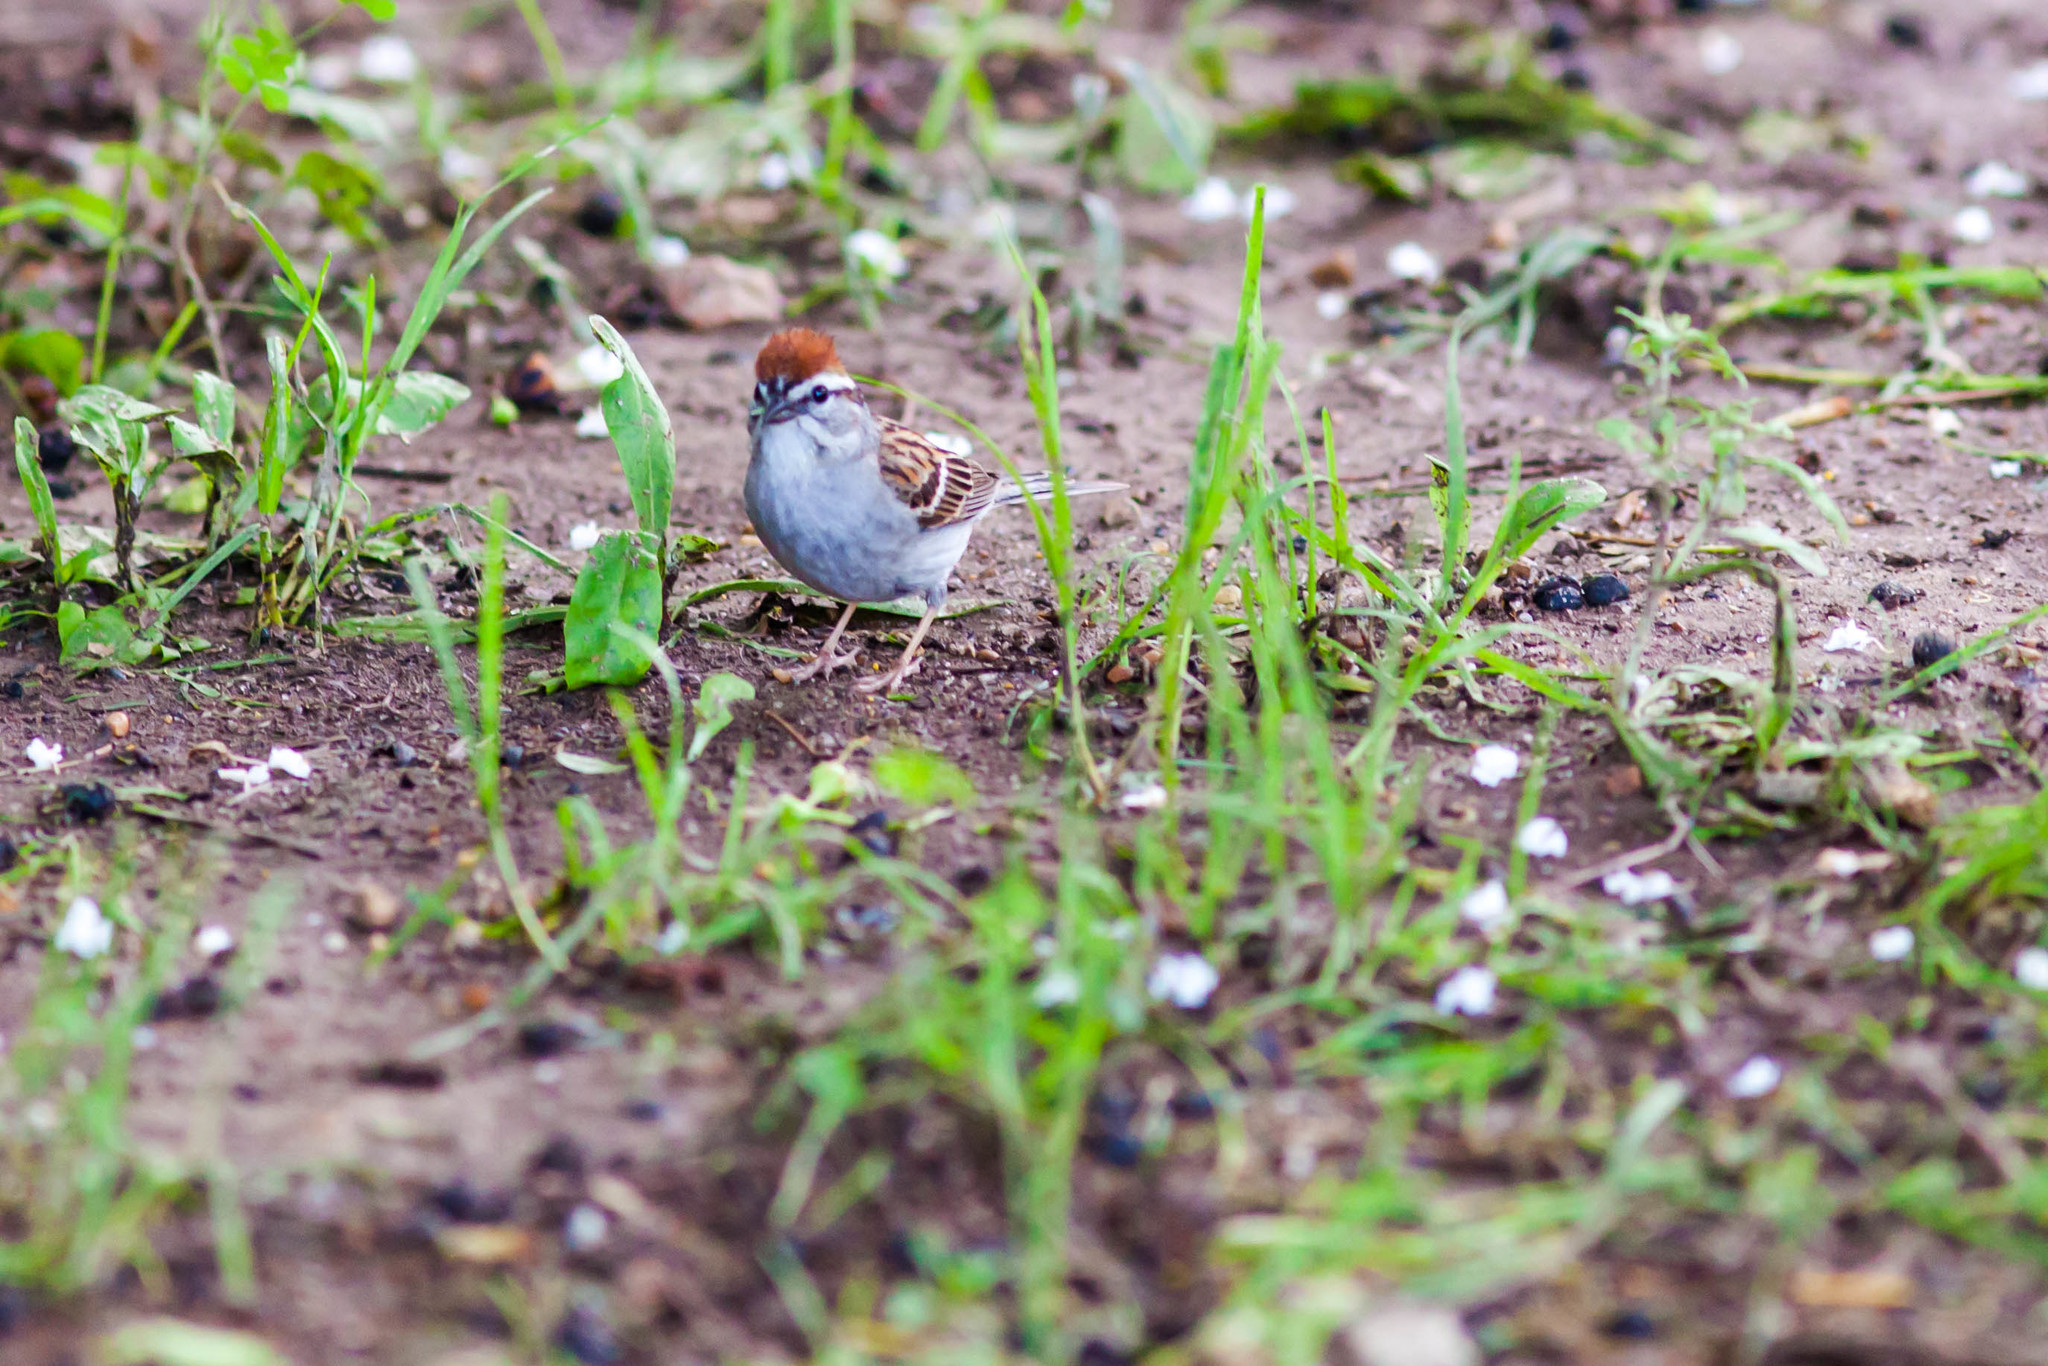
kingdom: Animalia
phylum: Chordata
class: Aves
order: Passeriformes
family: Passerellidae
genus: Spizella
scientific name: Spizella passerina
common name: Chipping sparrow
